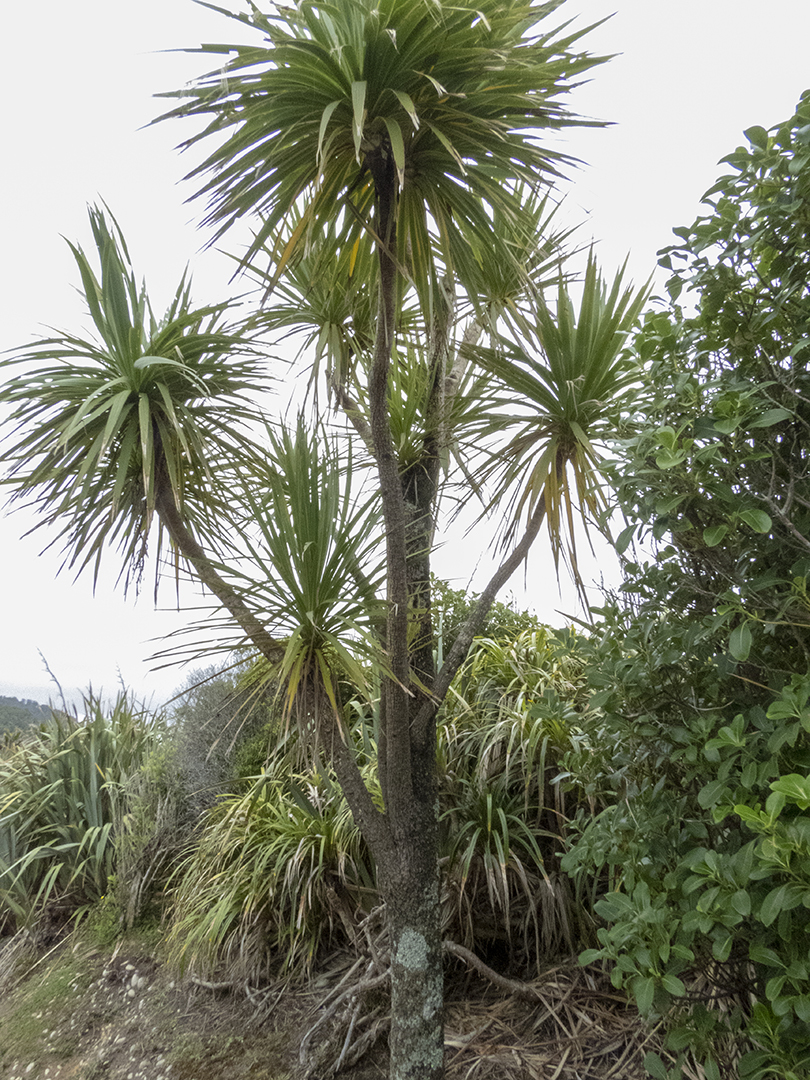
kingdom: Plantae
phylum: Tracheophyta
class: Liliopsida
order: Asparagales
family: Asparagaceae
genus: Cordyline
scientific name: Cordyline australis
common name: Cabbage-palm
